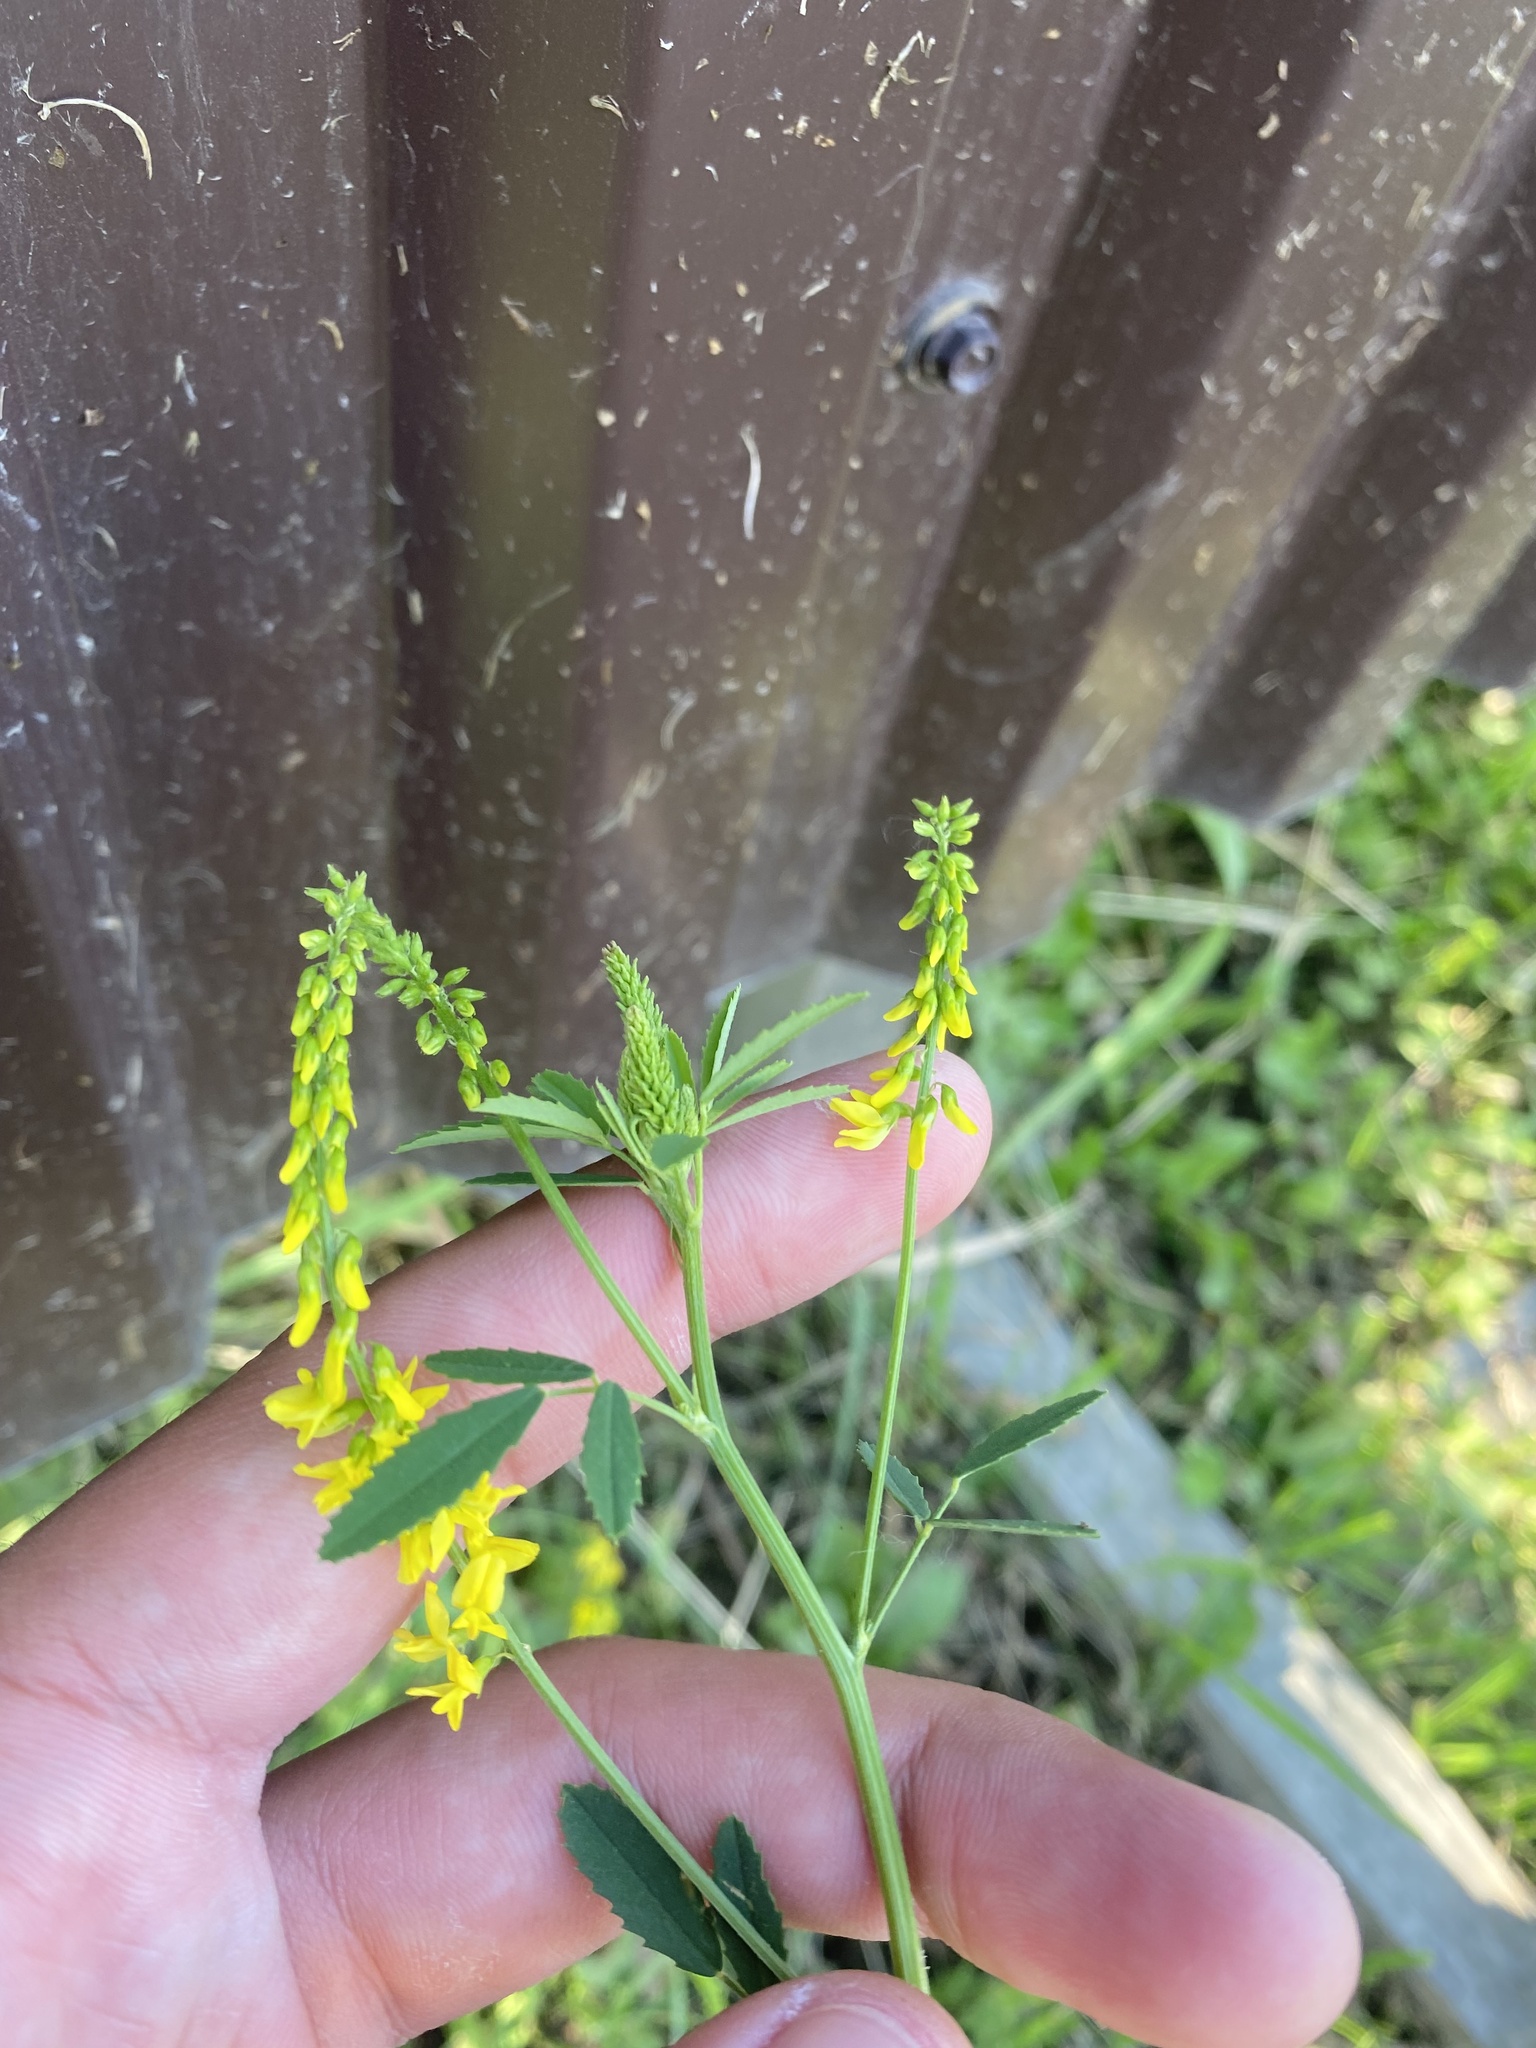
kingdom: Plantae
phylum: Tracheophyta
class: Magnoliopsida
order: Fabales
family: Fabaceae
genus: Melilotus
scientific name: Melilotus officinalis
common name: Sweetclover
